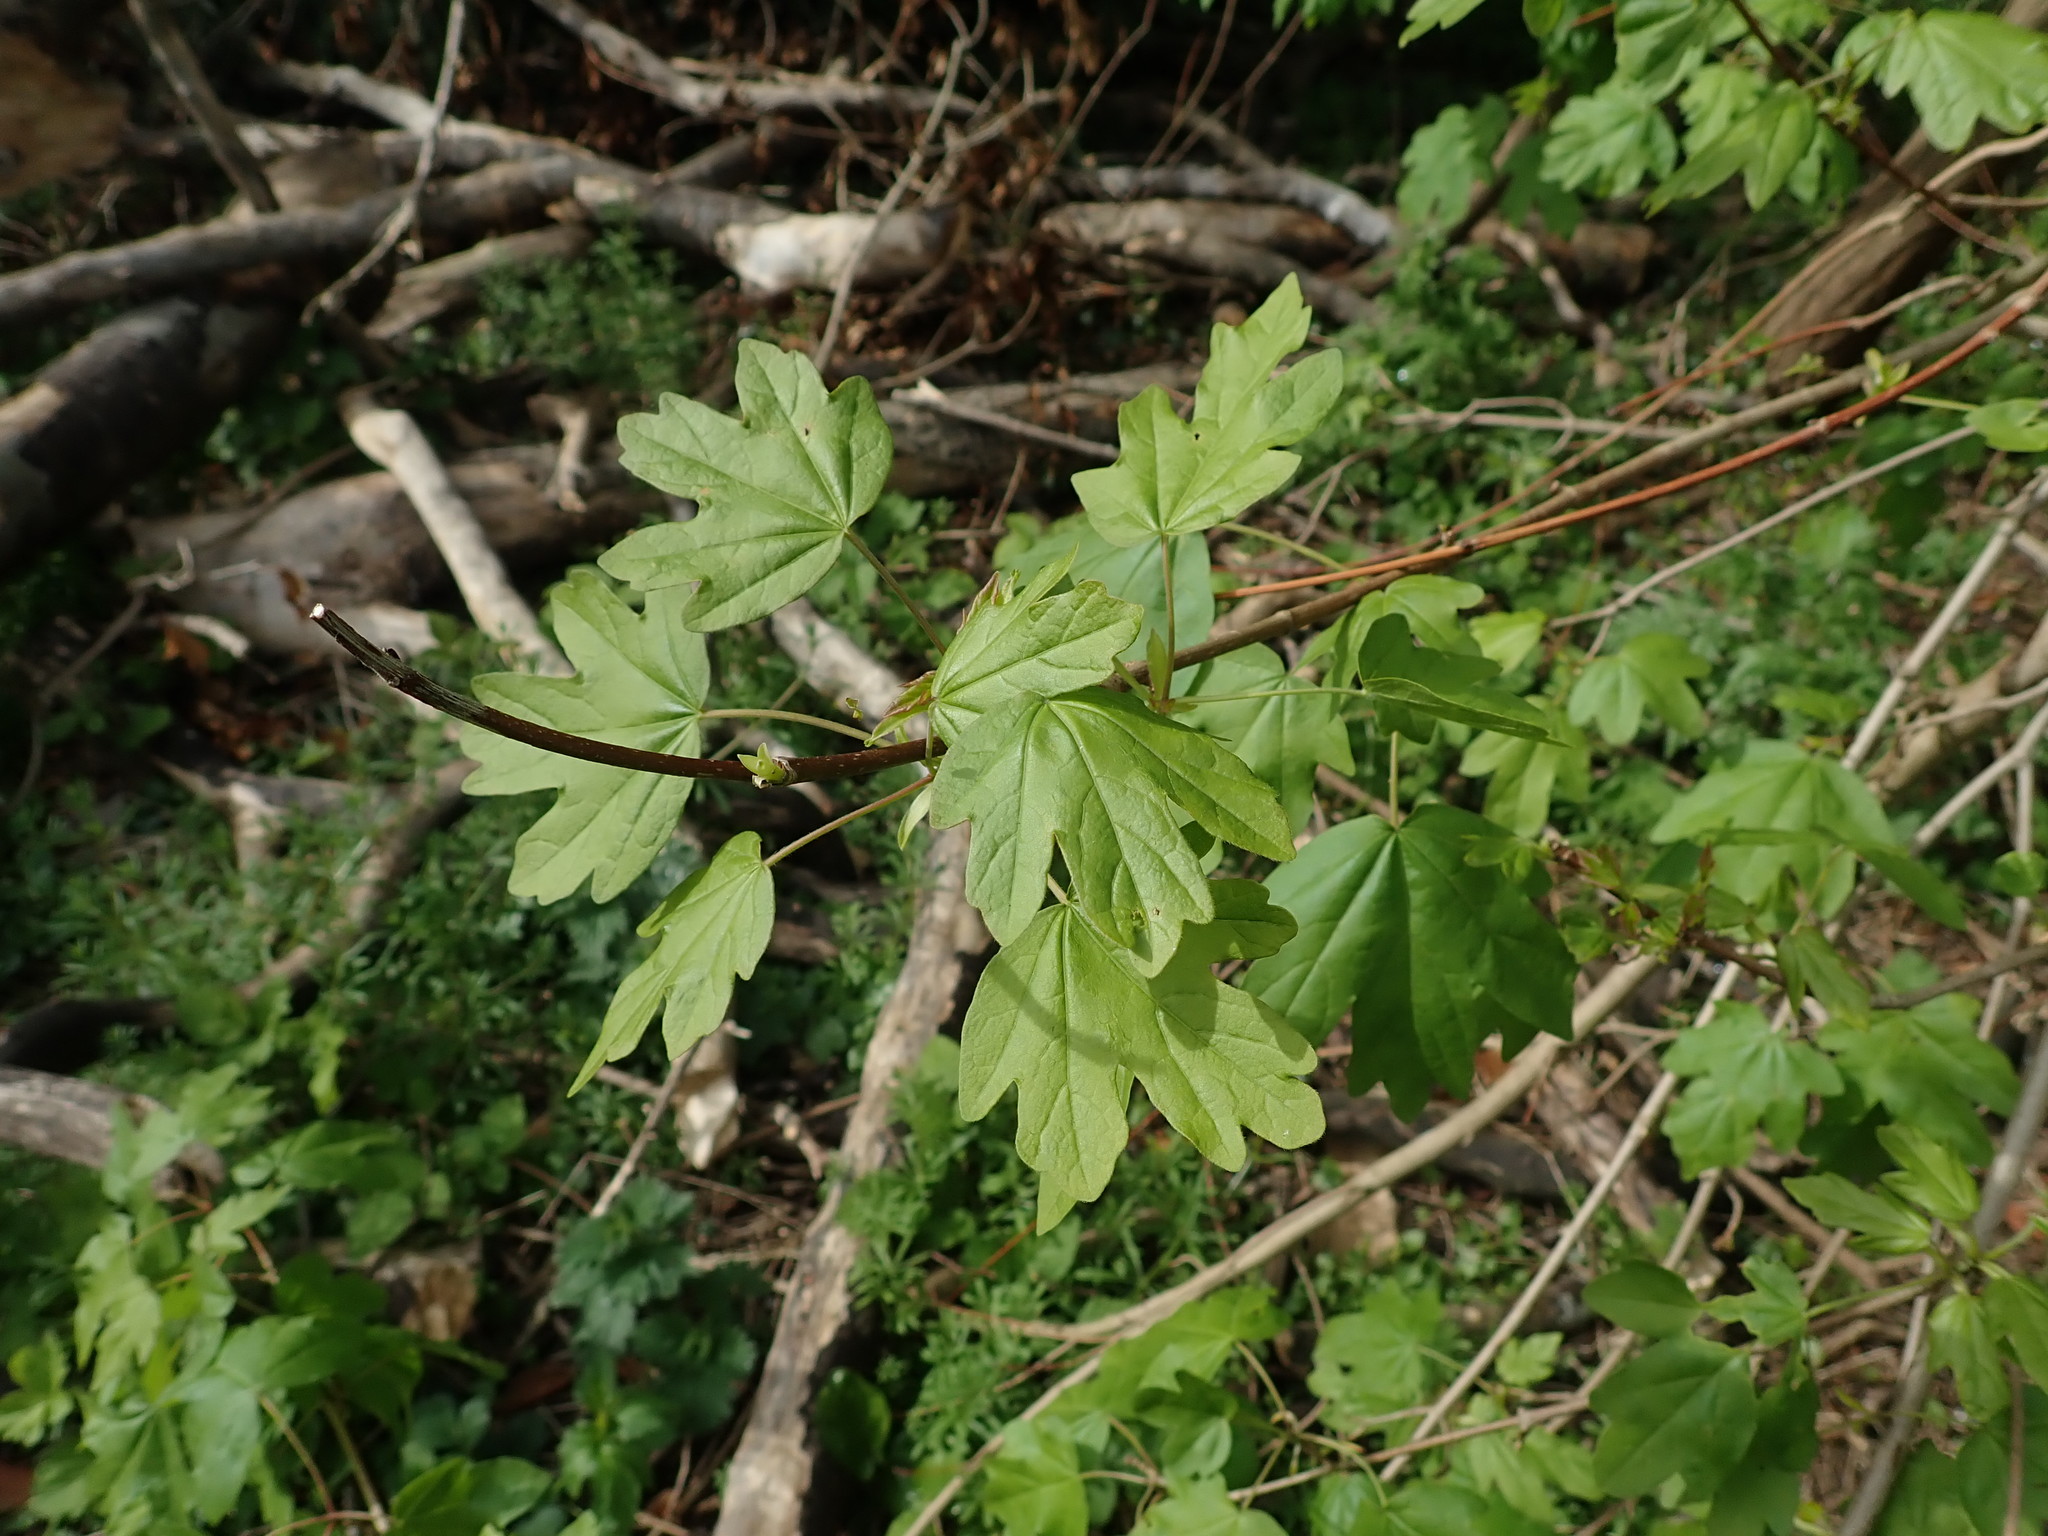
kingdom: Plantae
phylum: Tracheophyta
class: Magnoliopsida
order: Sapindales
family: Sapindaceae
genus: Acer
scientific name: Acer campestre
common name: Field maple
